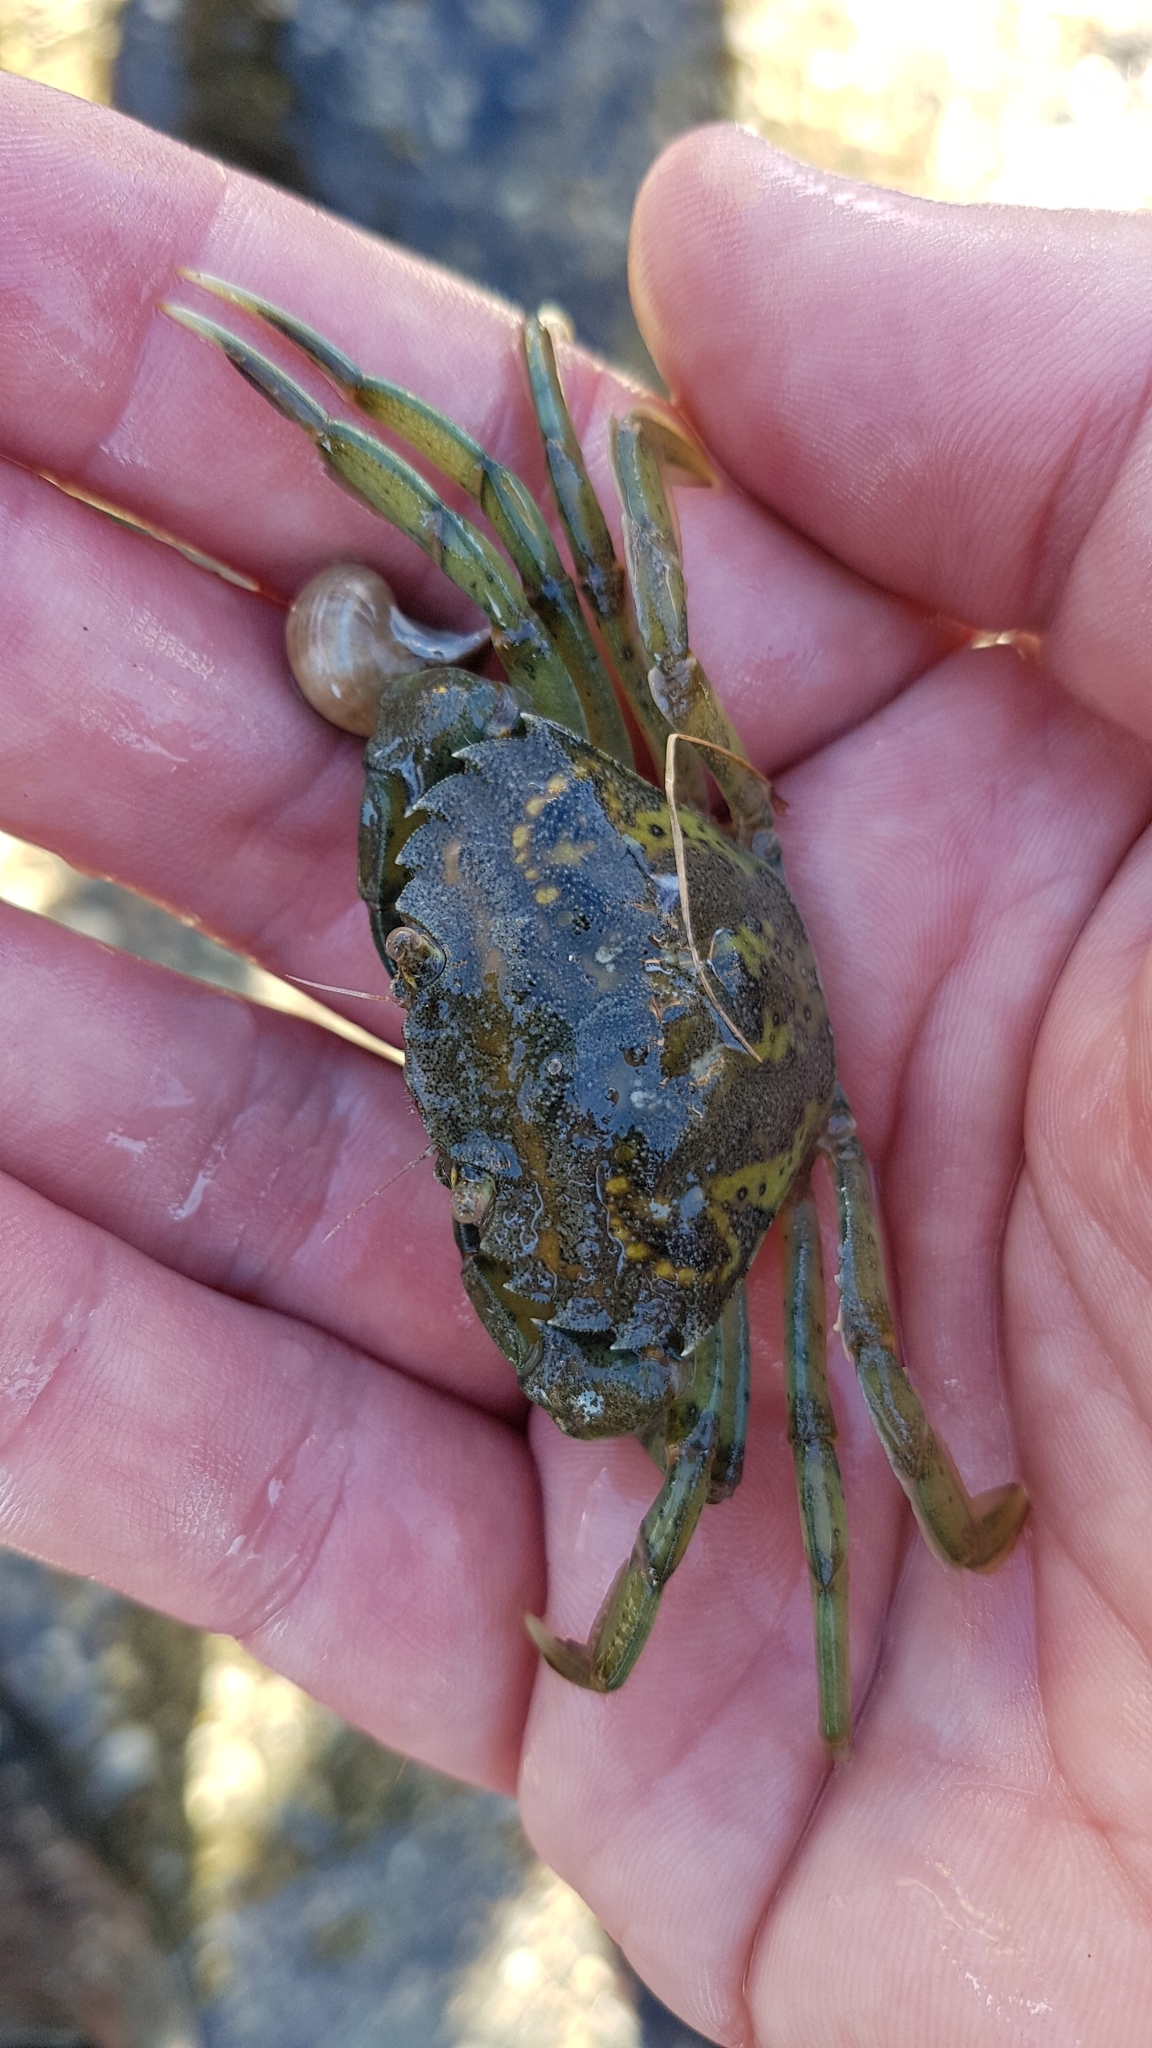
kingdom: Animalia
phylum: Arthropoda
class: Malacostraca
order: Decapoda
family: Carcinidae
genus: Carcinus
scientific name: Carcinus maenas
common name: European green crab
